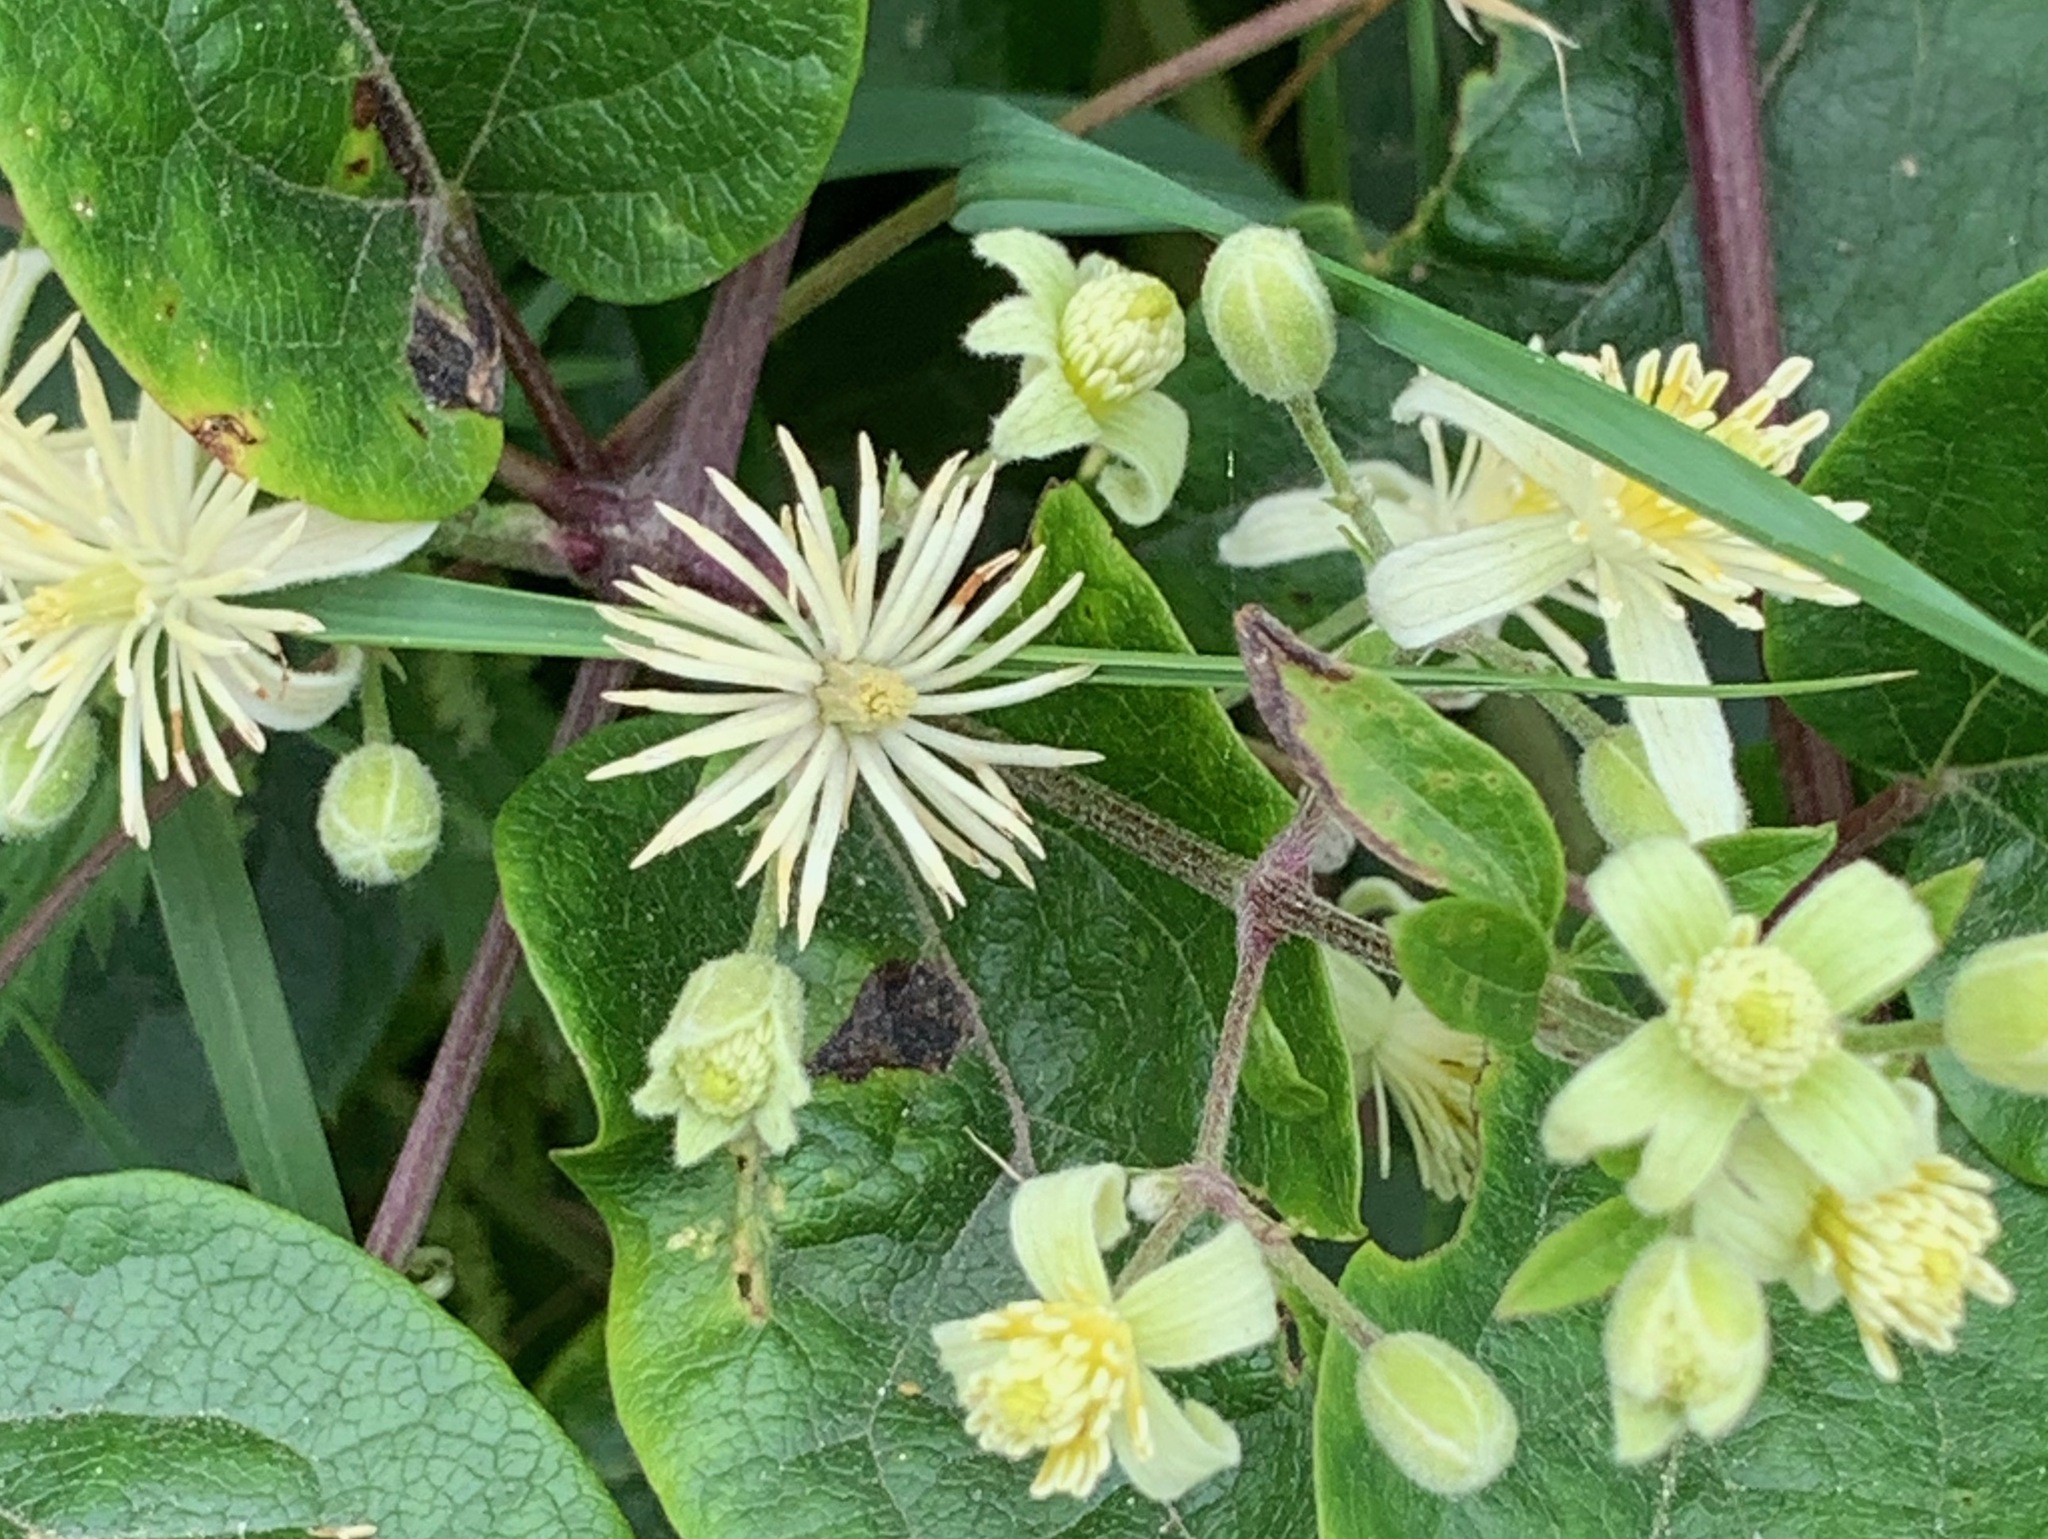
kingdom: Plantae
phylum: Tracheophyta
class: Magnoliopsida
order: Ranunculales
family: Ranunculaceae
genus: Clematis
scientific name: Clematis vitalba
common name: Evergreen clematis
